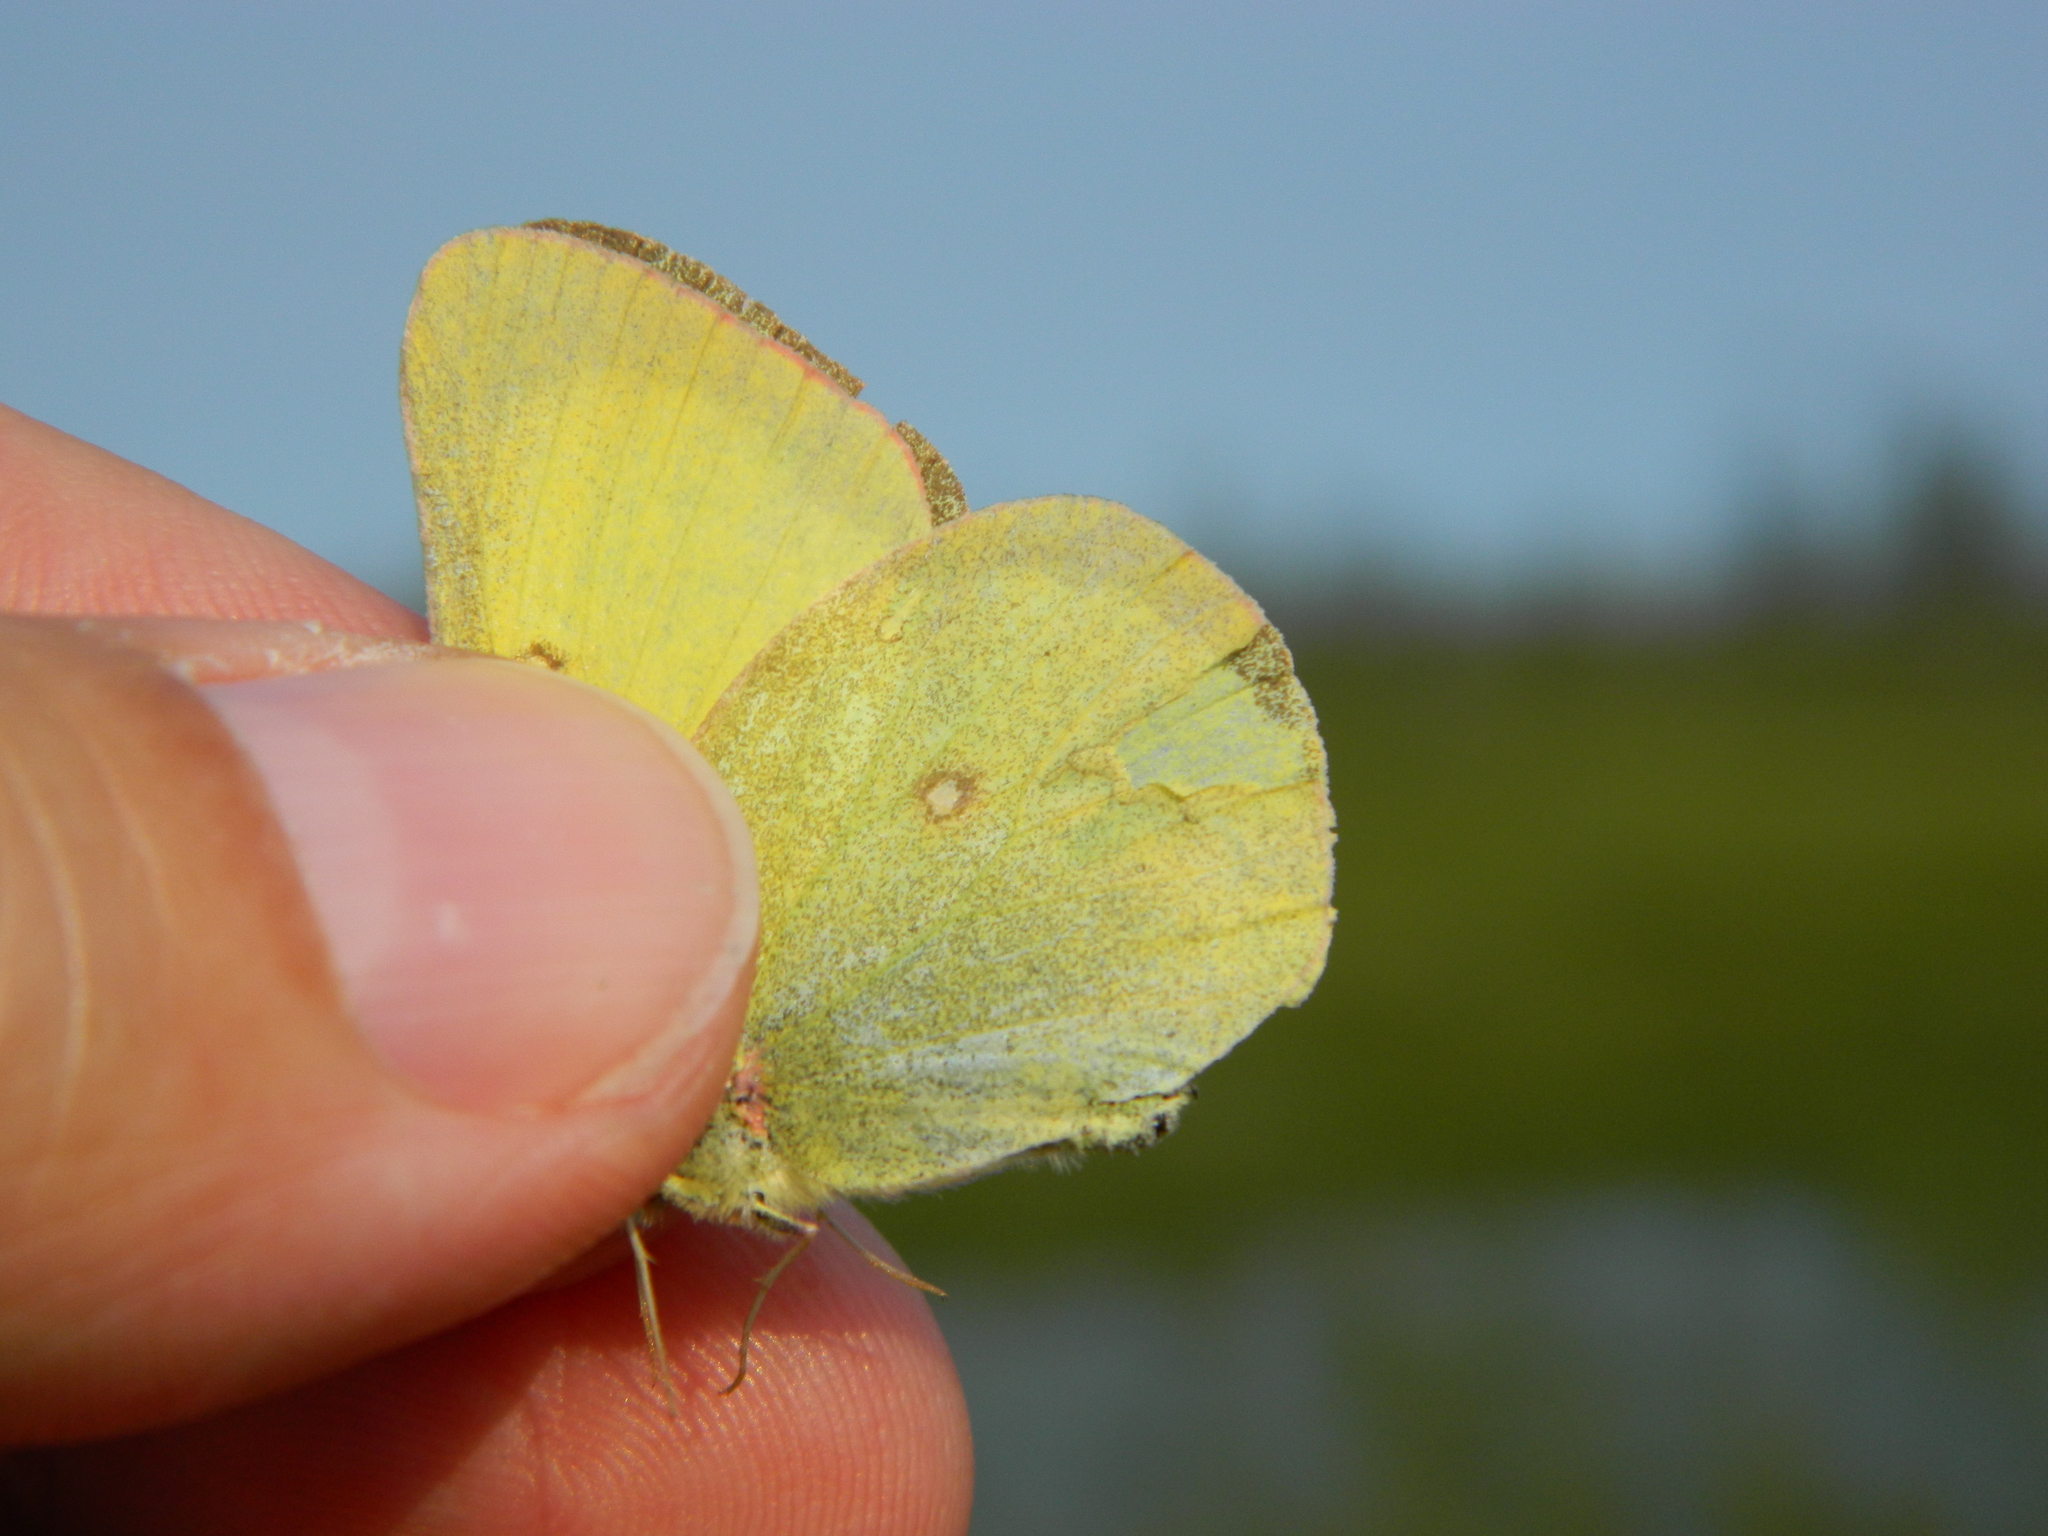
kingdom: Animalia
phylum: Arthropoda
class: Insecta
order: Lepidoptera
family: Pieridae
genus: Colias
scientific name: Colias pelidne
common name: Blueberry sulphur
